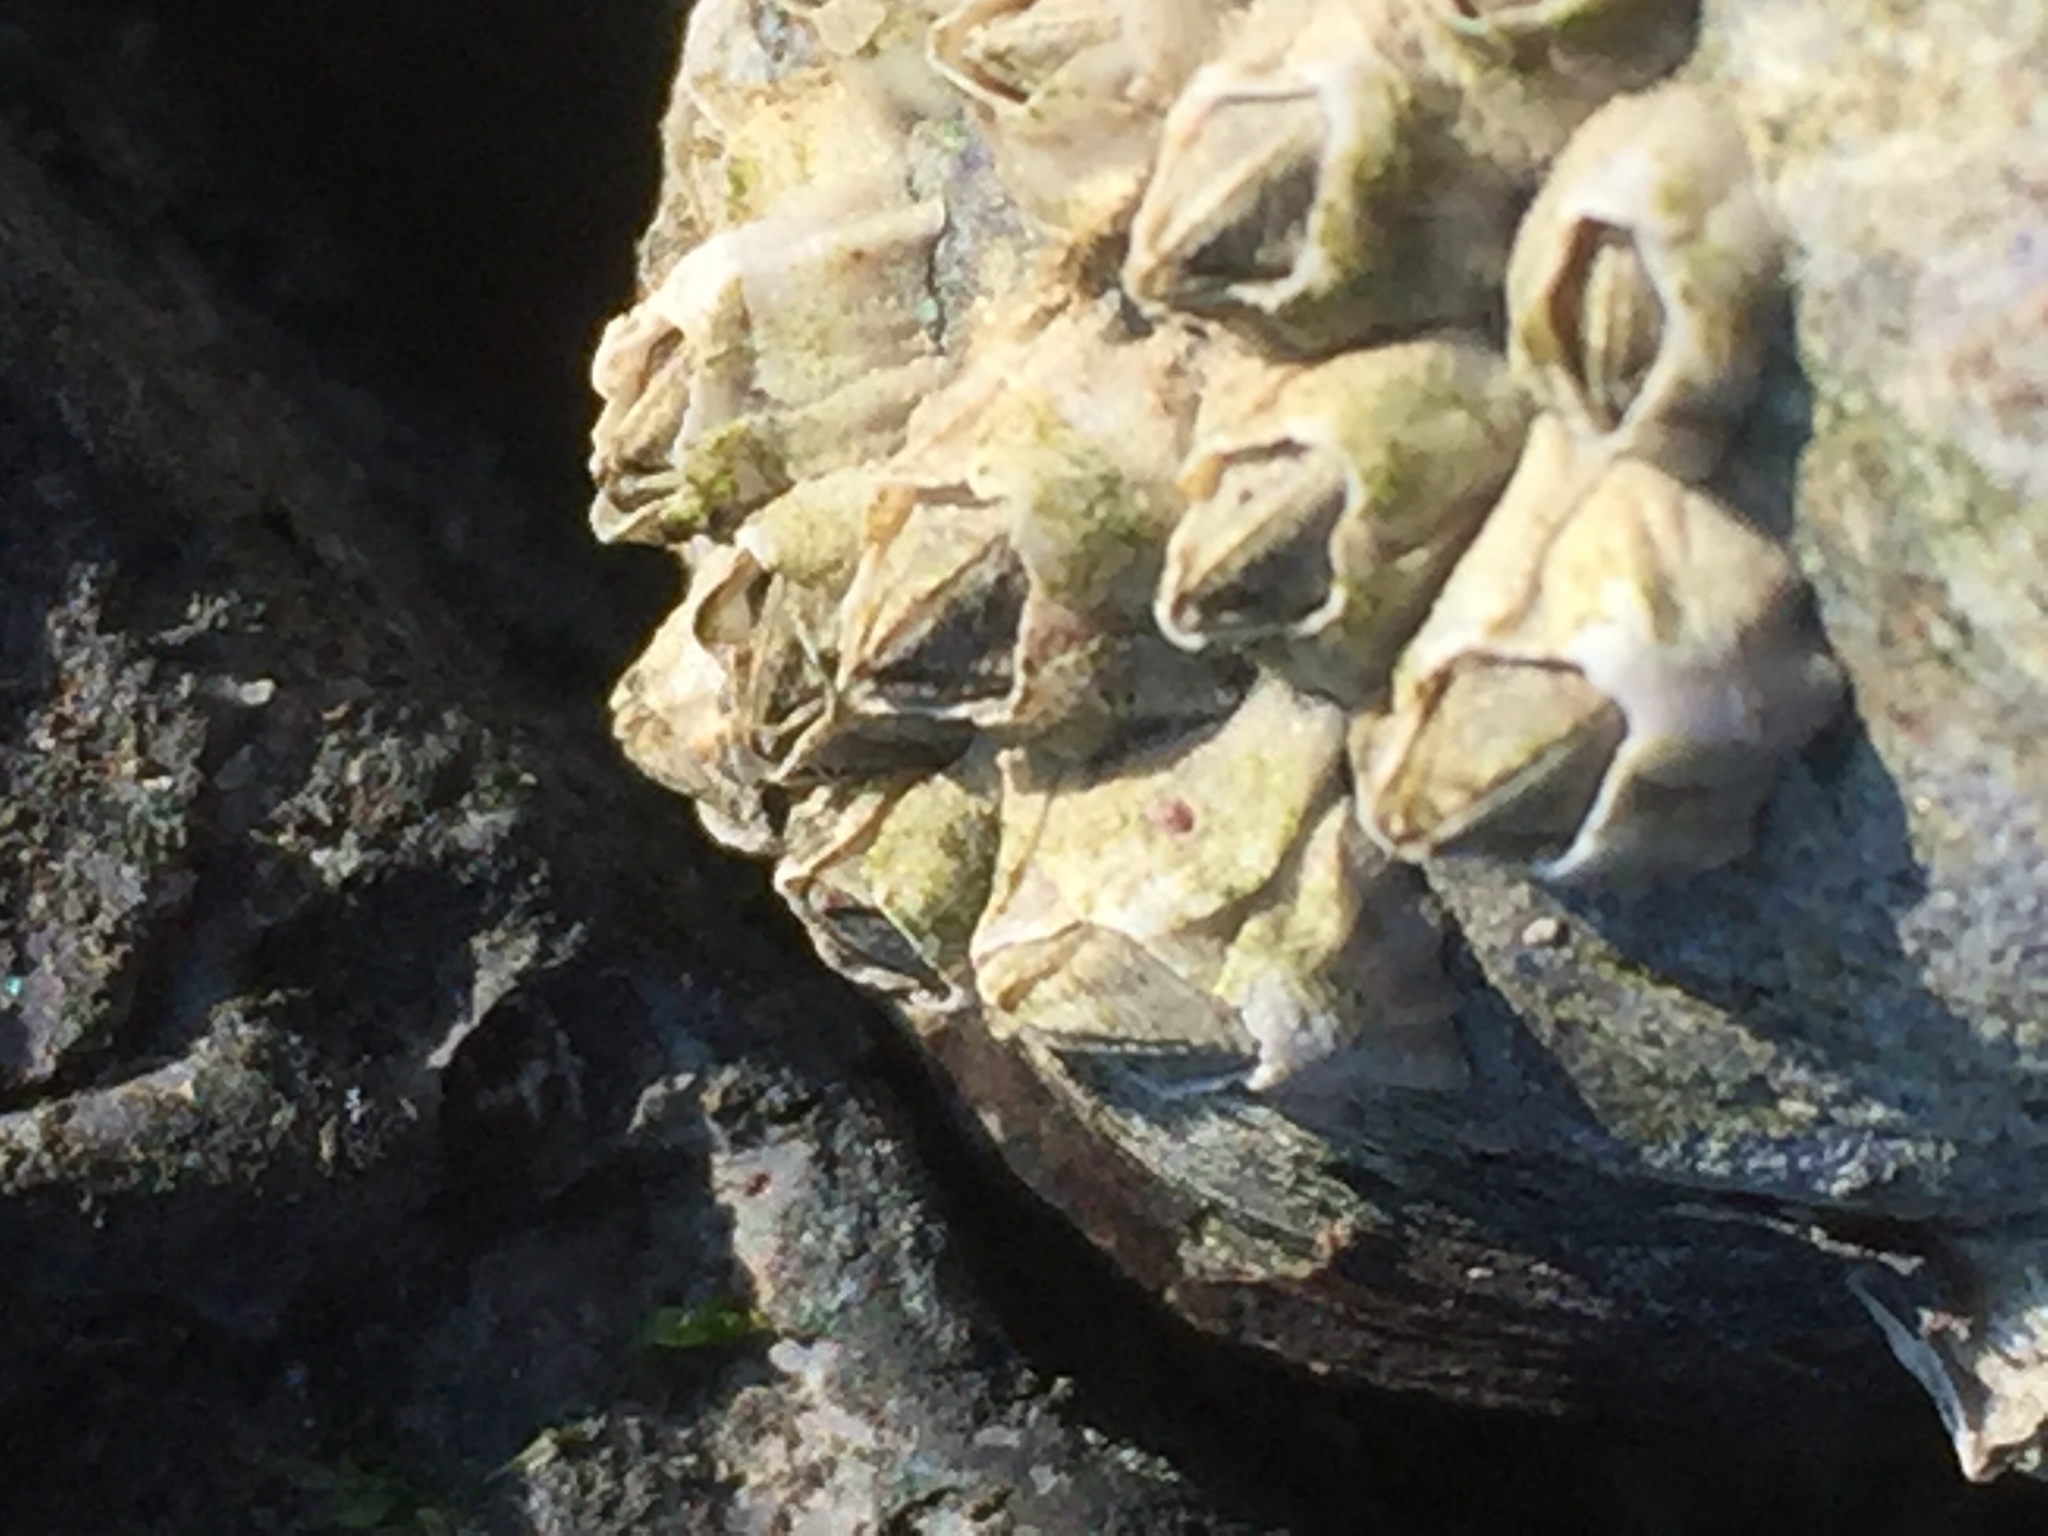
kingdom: Animalia
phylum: Arthropoda
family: Elminiidae
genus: Austrominius
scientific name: Austrominius modestus
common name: Australasian barnacle
